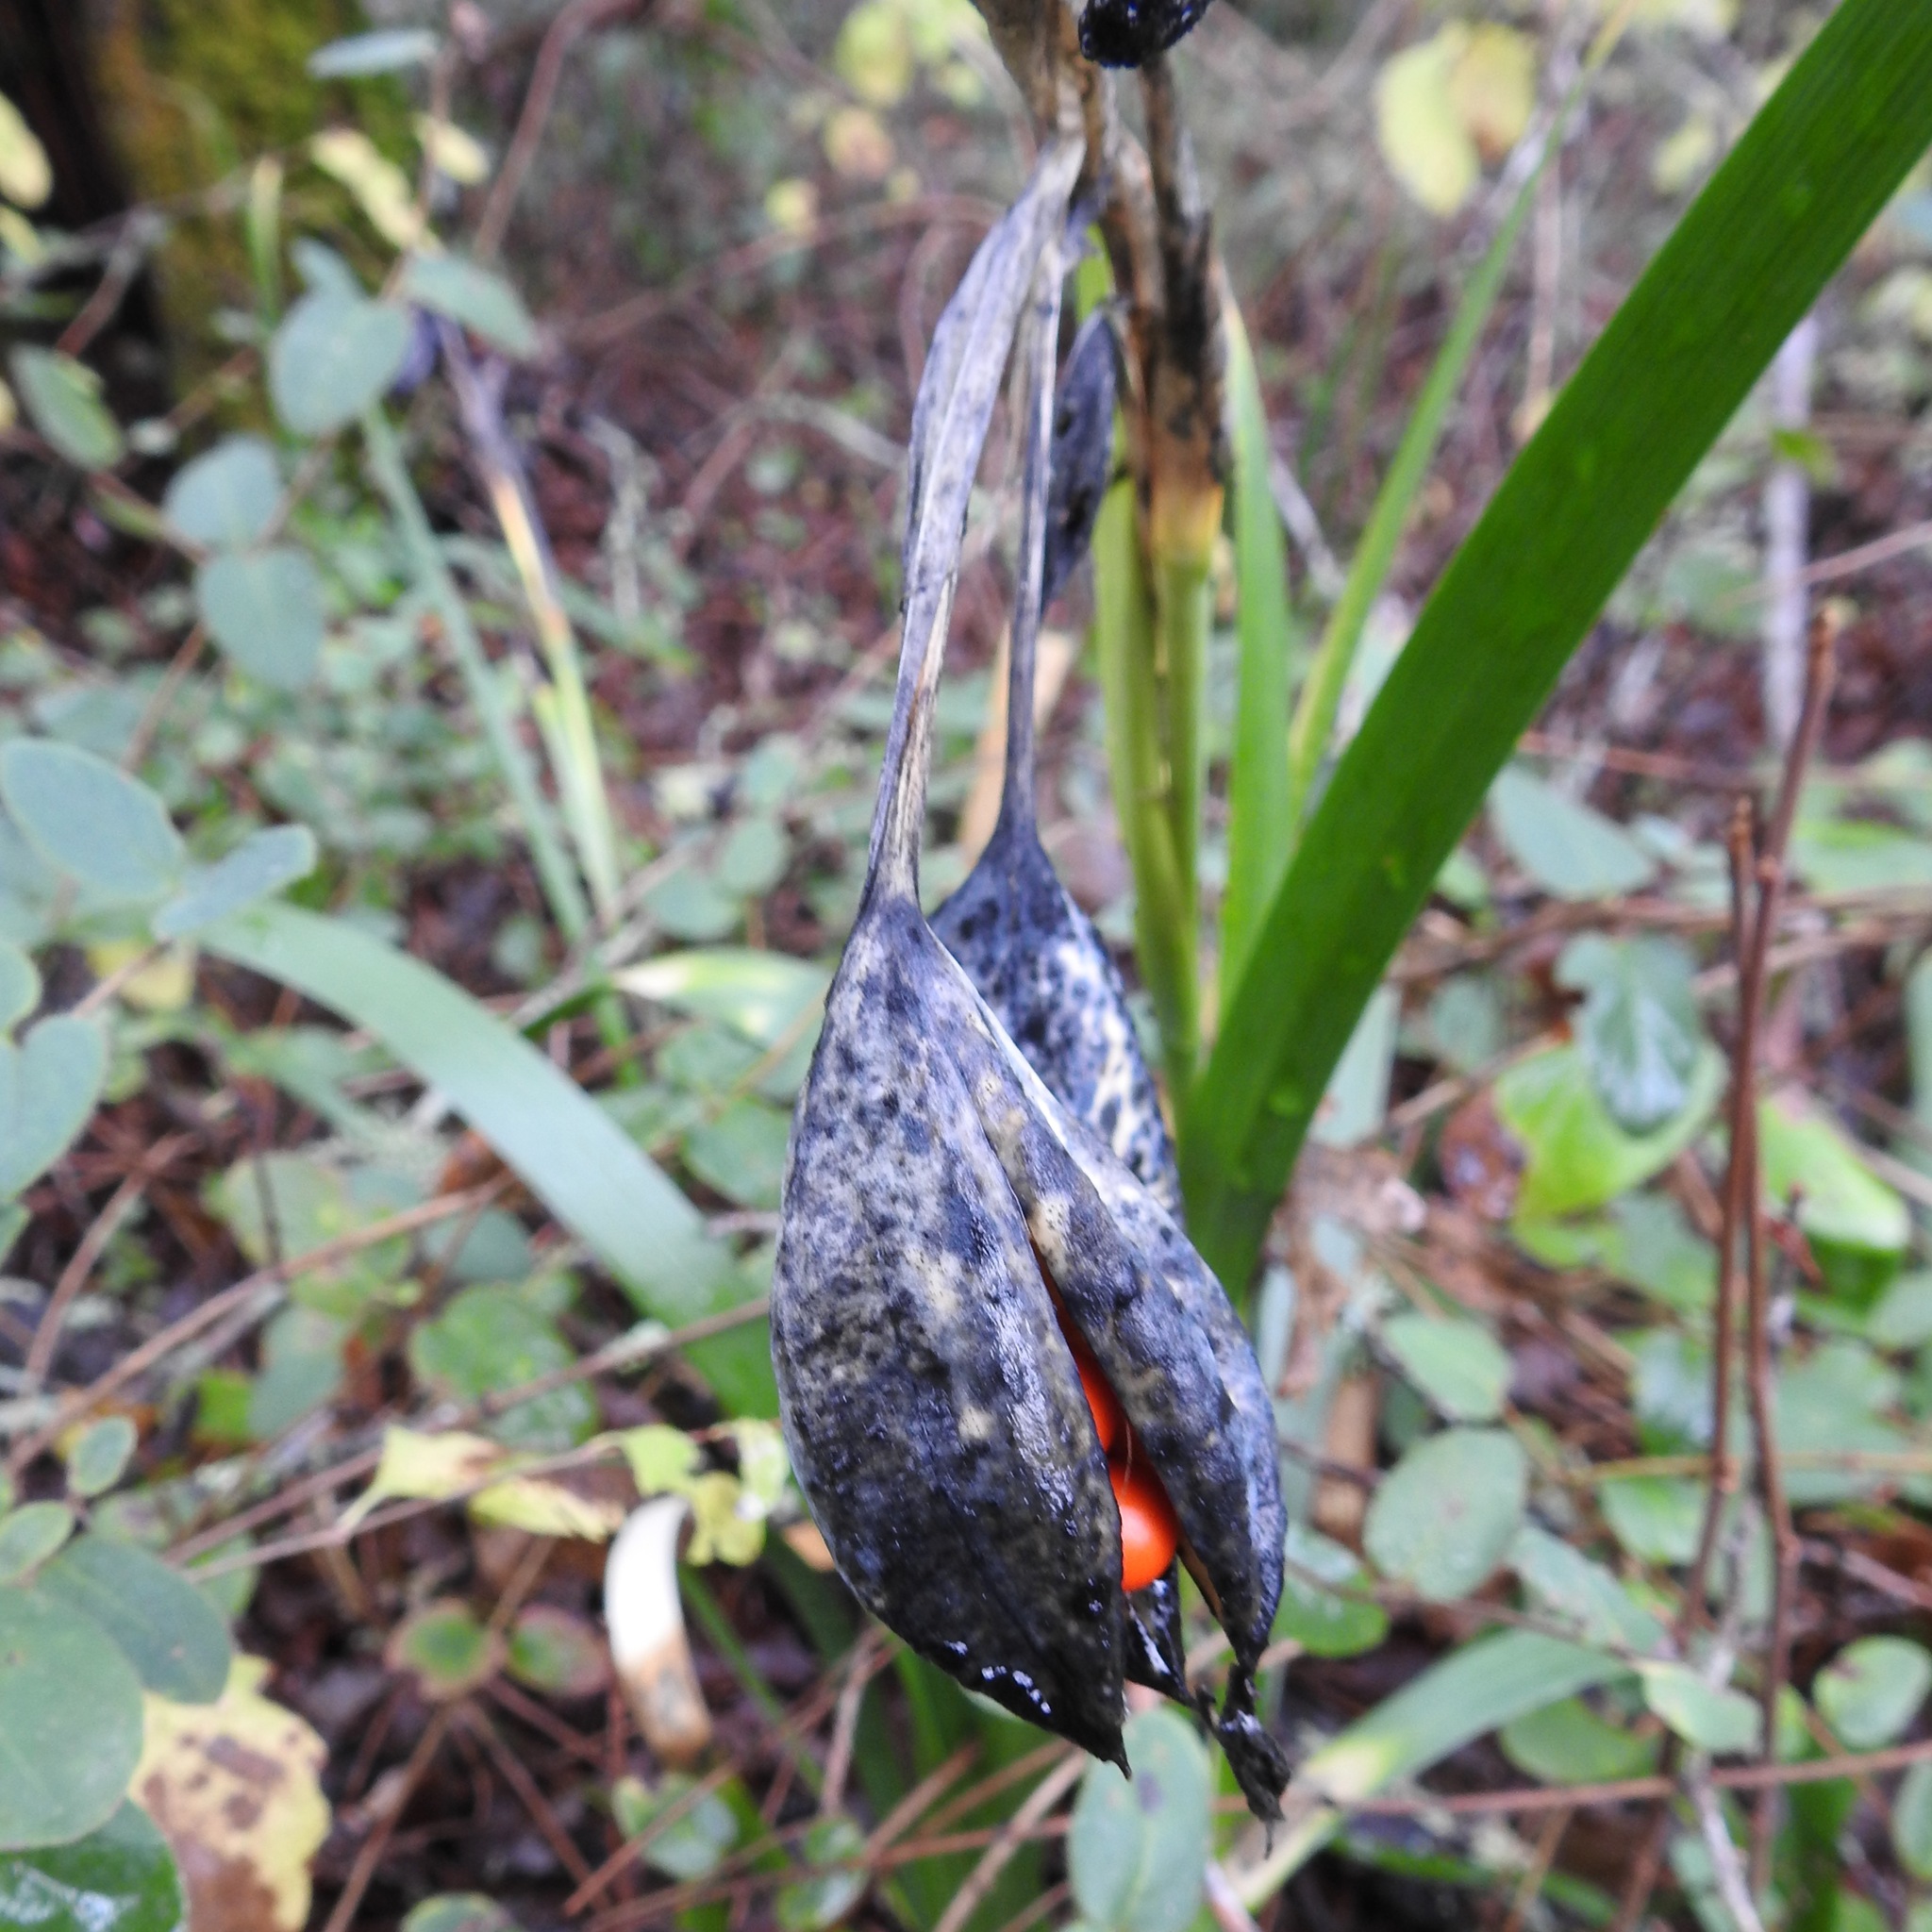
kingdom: Plantae
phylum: Tracheophyta
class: Liliopsida
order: Asparagales
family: Iridaceae
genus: Iris
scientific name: Iris foetidissima
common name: Stinking iris
